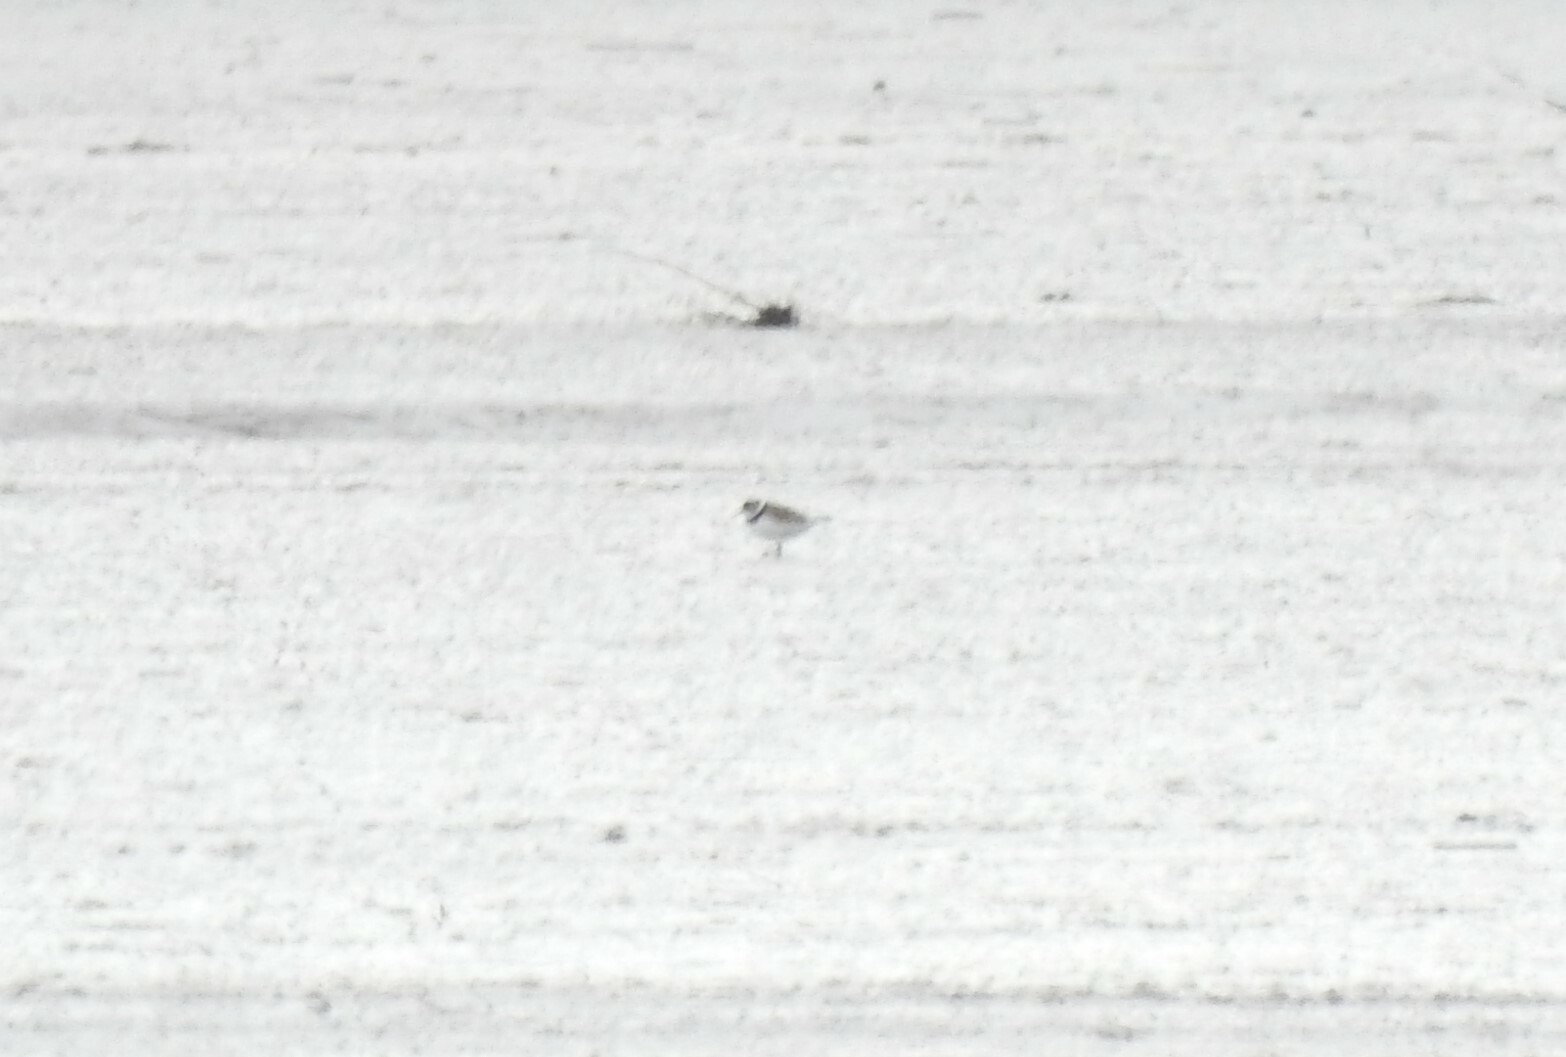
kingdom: Animalia
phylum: Chordata
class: Aves
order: Charadriiformes
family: Charadriidae
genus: Charadrius
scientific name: Charadrius hiaticula
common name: Common ringed plover
